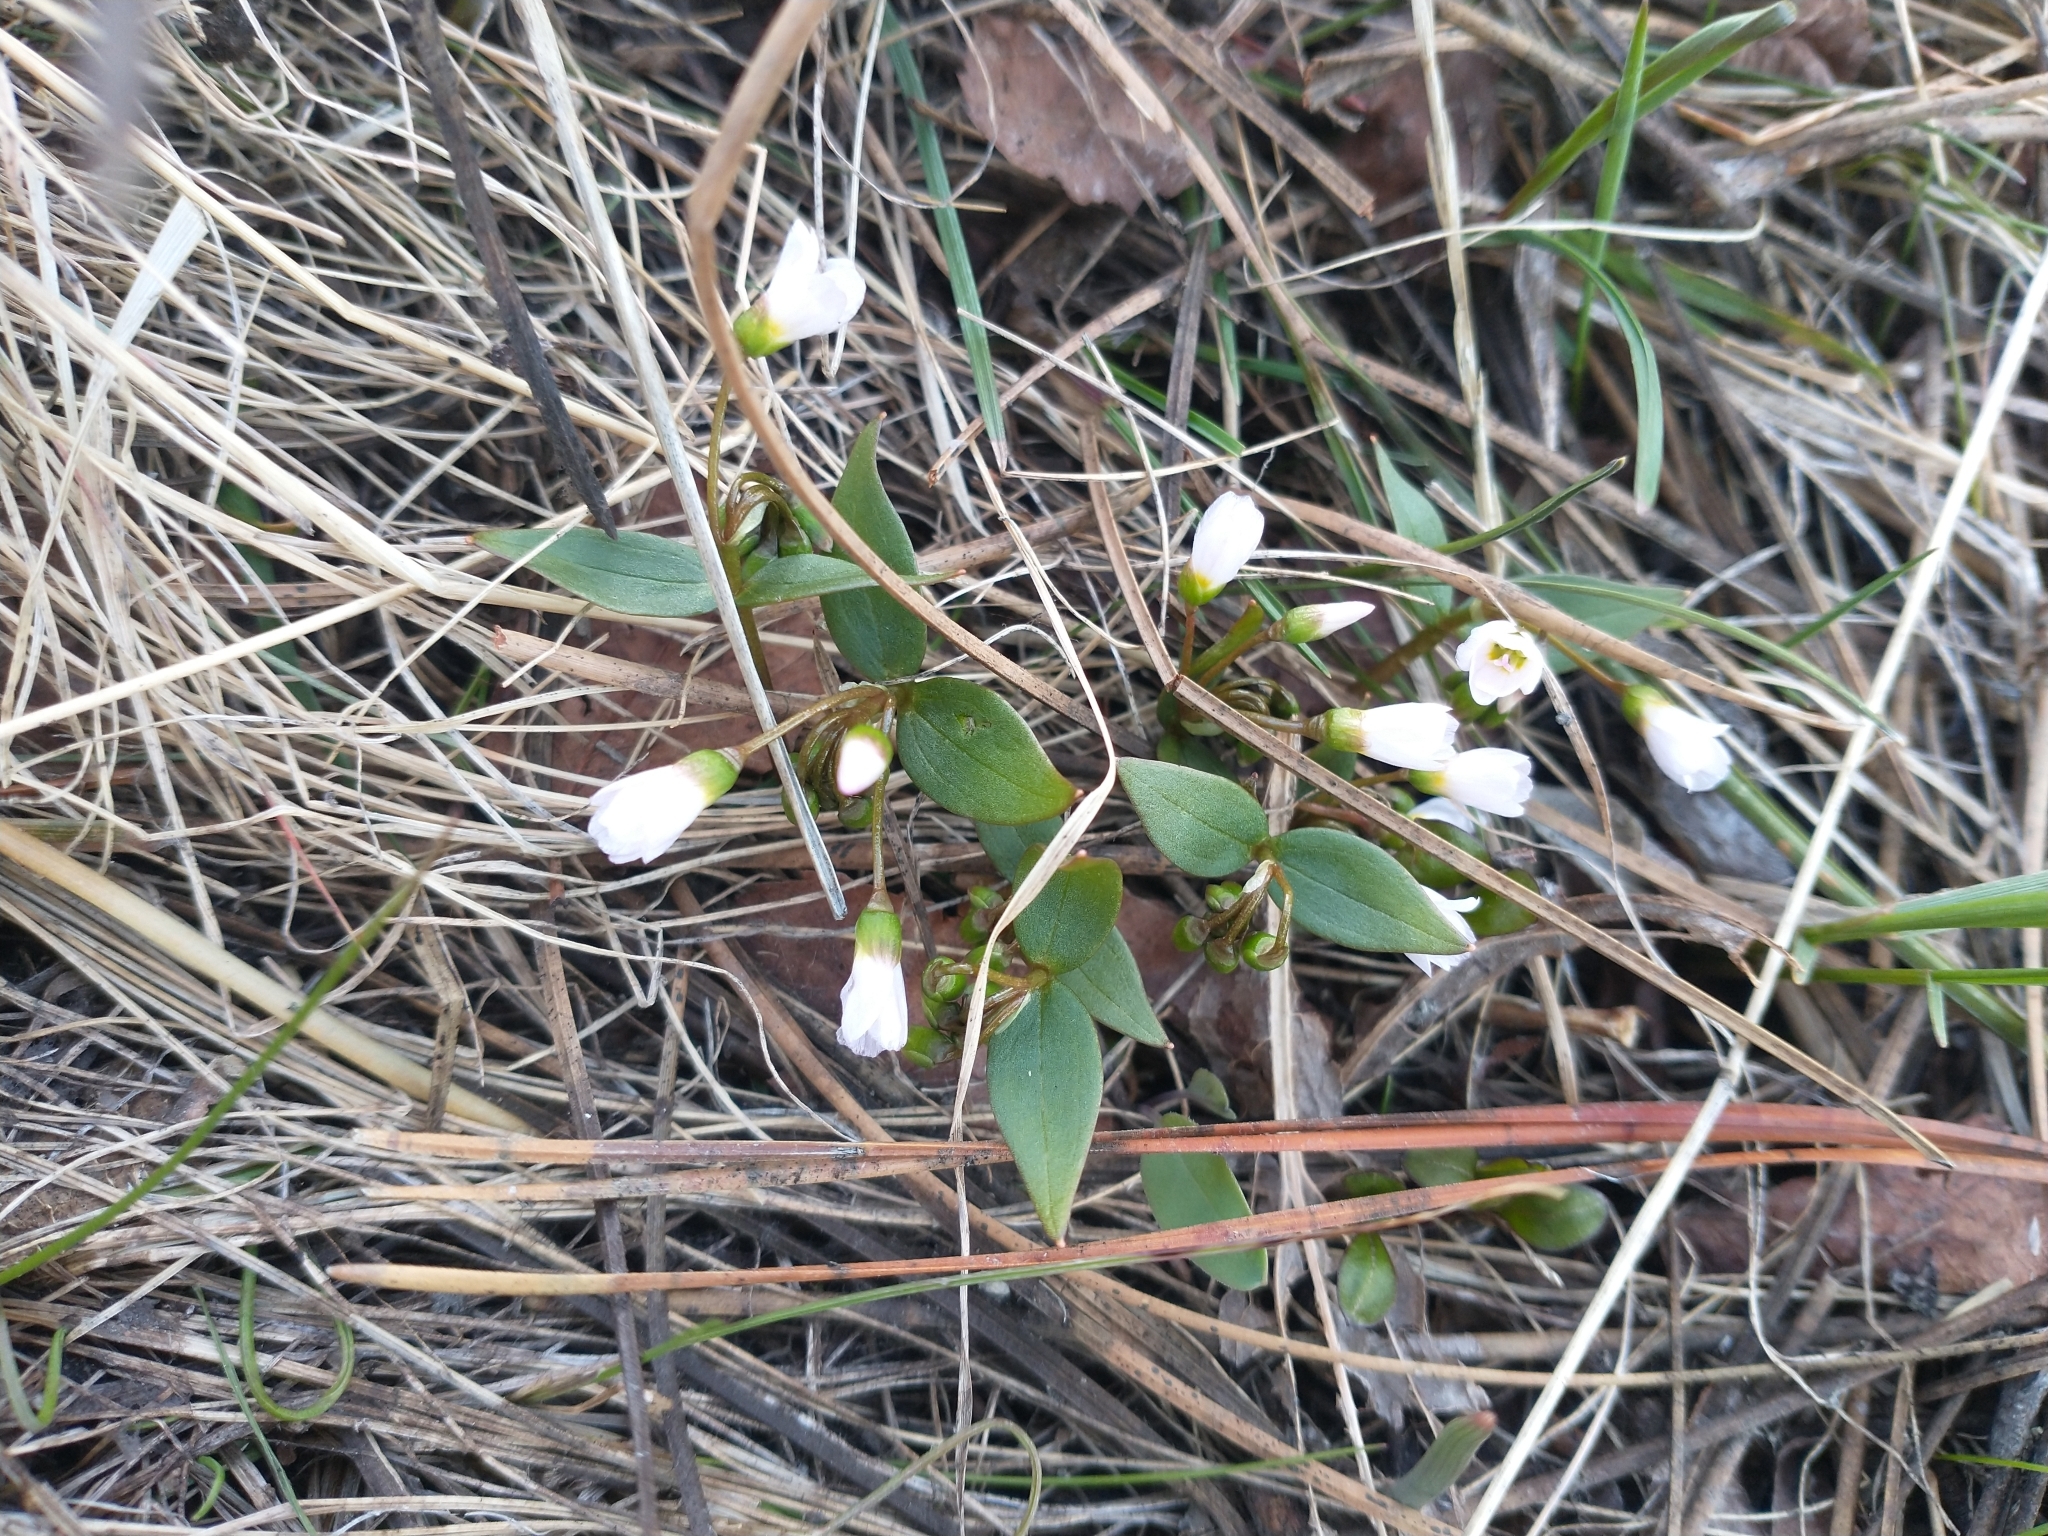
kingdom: Plantae
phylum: Tracheophyta
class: Magnoliopsida
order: Caryophyllales
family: Montiaceae
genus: Claytonia
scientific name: Claytonia lanceolata
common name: Western spring-beauty
